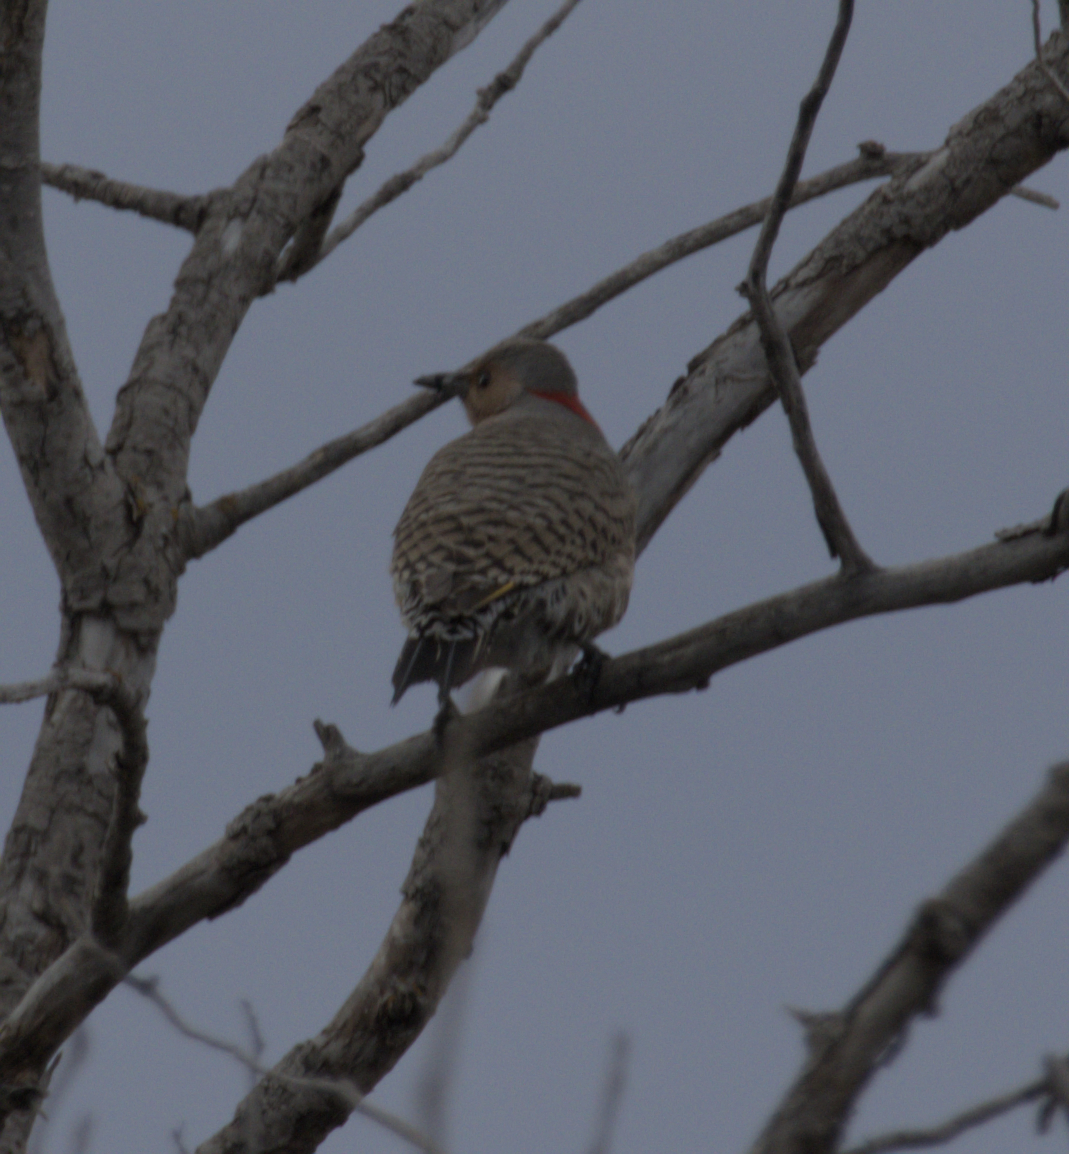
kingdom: Animalia
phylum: Chordata
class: Aves
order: Piciformes
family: Picidae
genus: Colaptes
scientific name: Colaptes auratus
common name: Northern flicker
